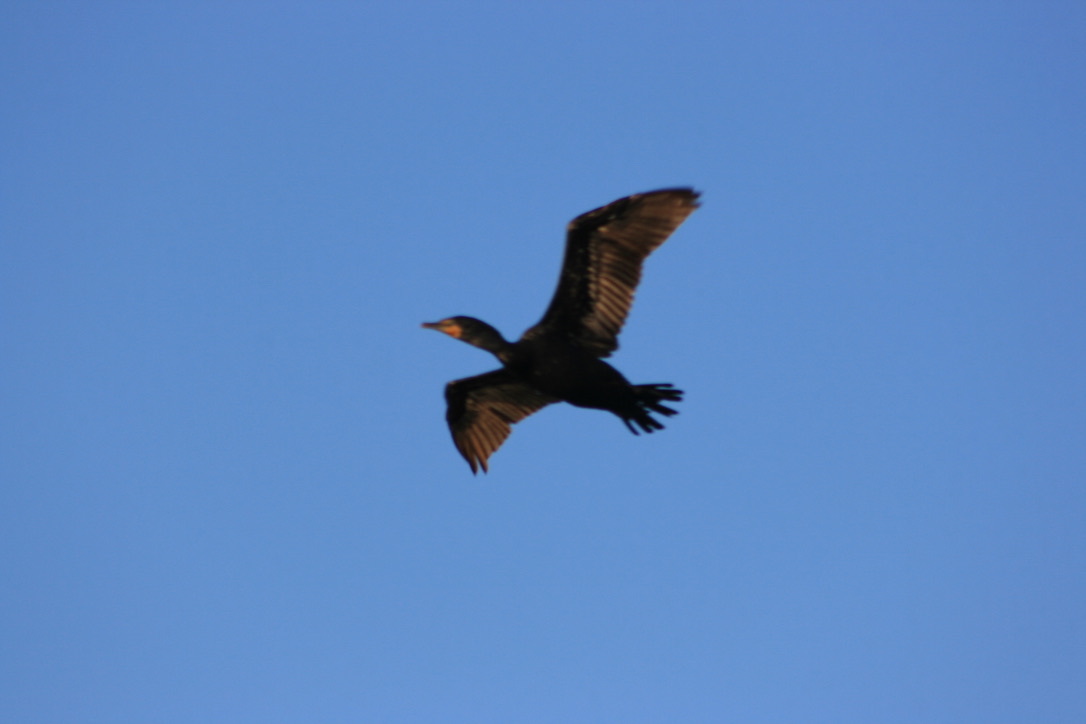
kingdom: Animalia
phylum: Chordata
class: Aves
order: Suliformes
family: Phalacrocoracidae
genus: Phalacrocorax
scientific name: Phalacrocorax auritus
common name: Double-crested cormorant
